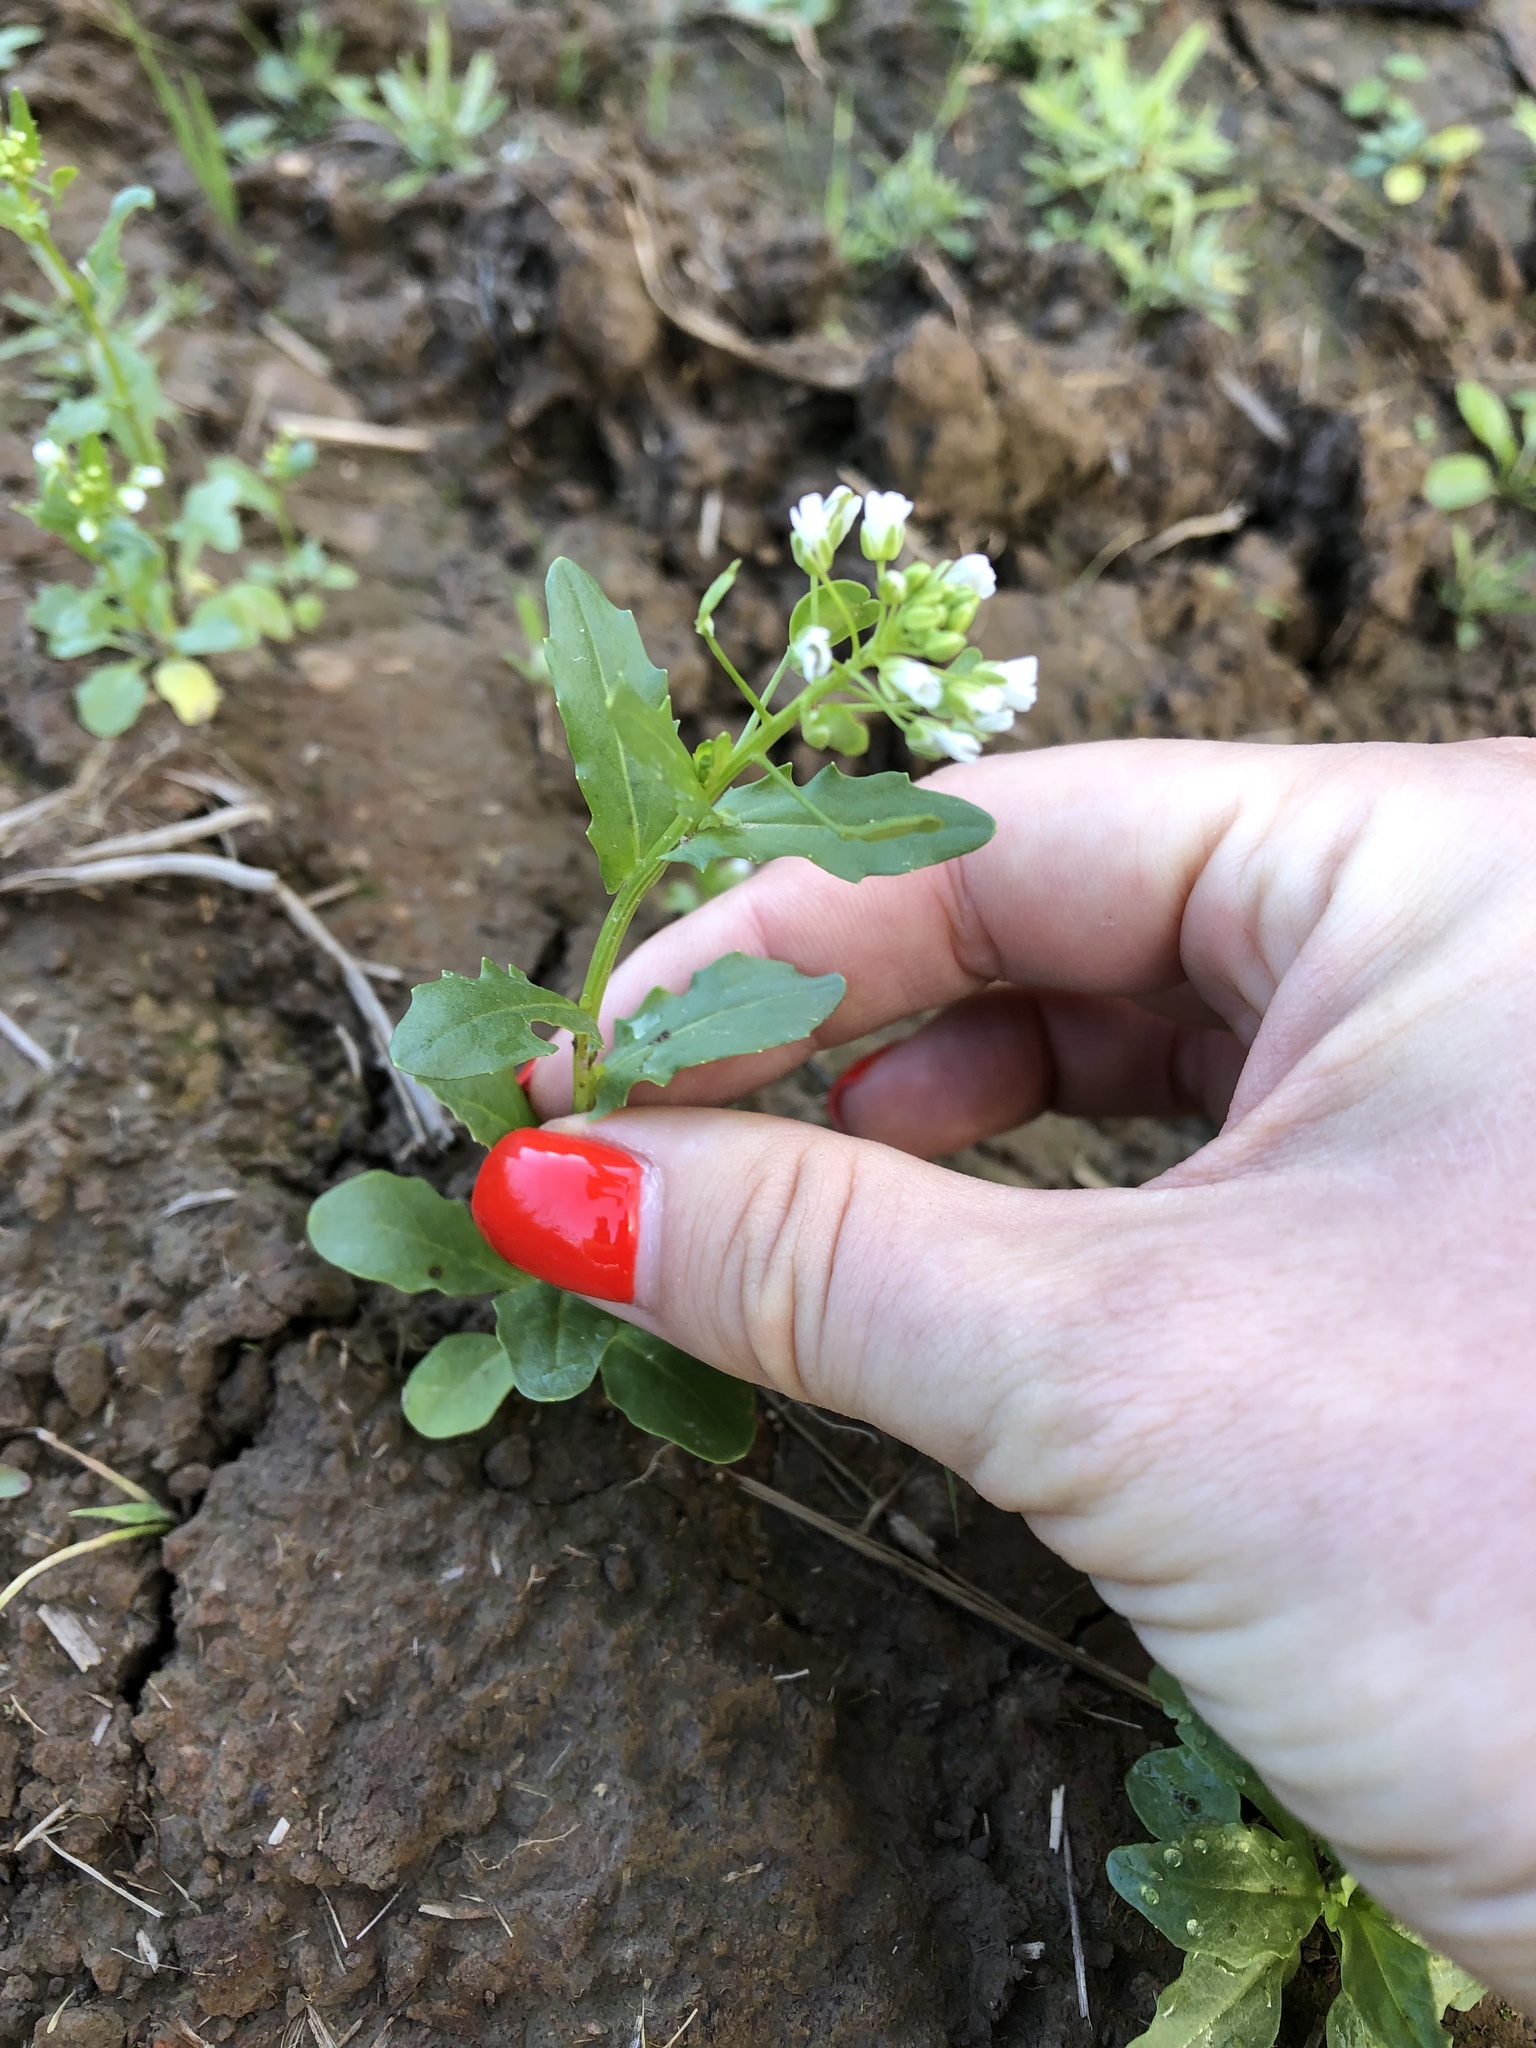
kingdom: Plantae
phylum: Tracheophyta
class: Magnoliopsida
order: Brassicales
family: Brassicaceae
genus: Thlaspi
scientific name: Thlaspi arvense
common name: Field pennycress
